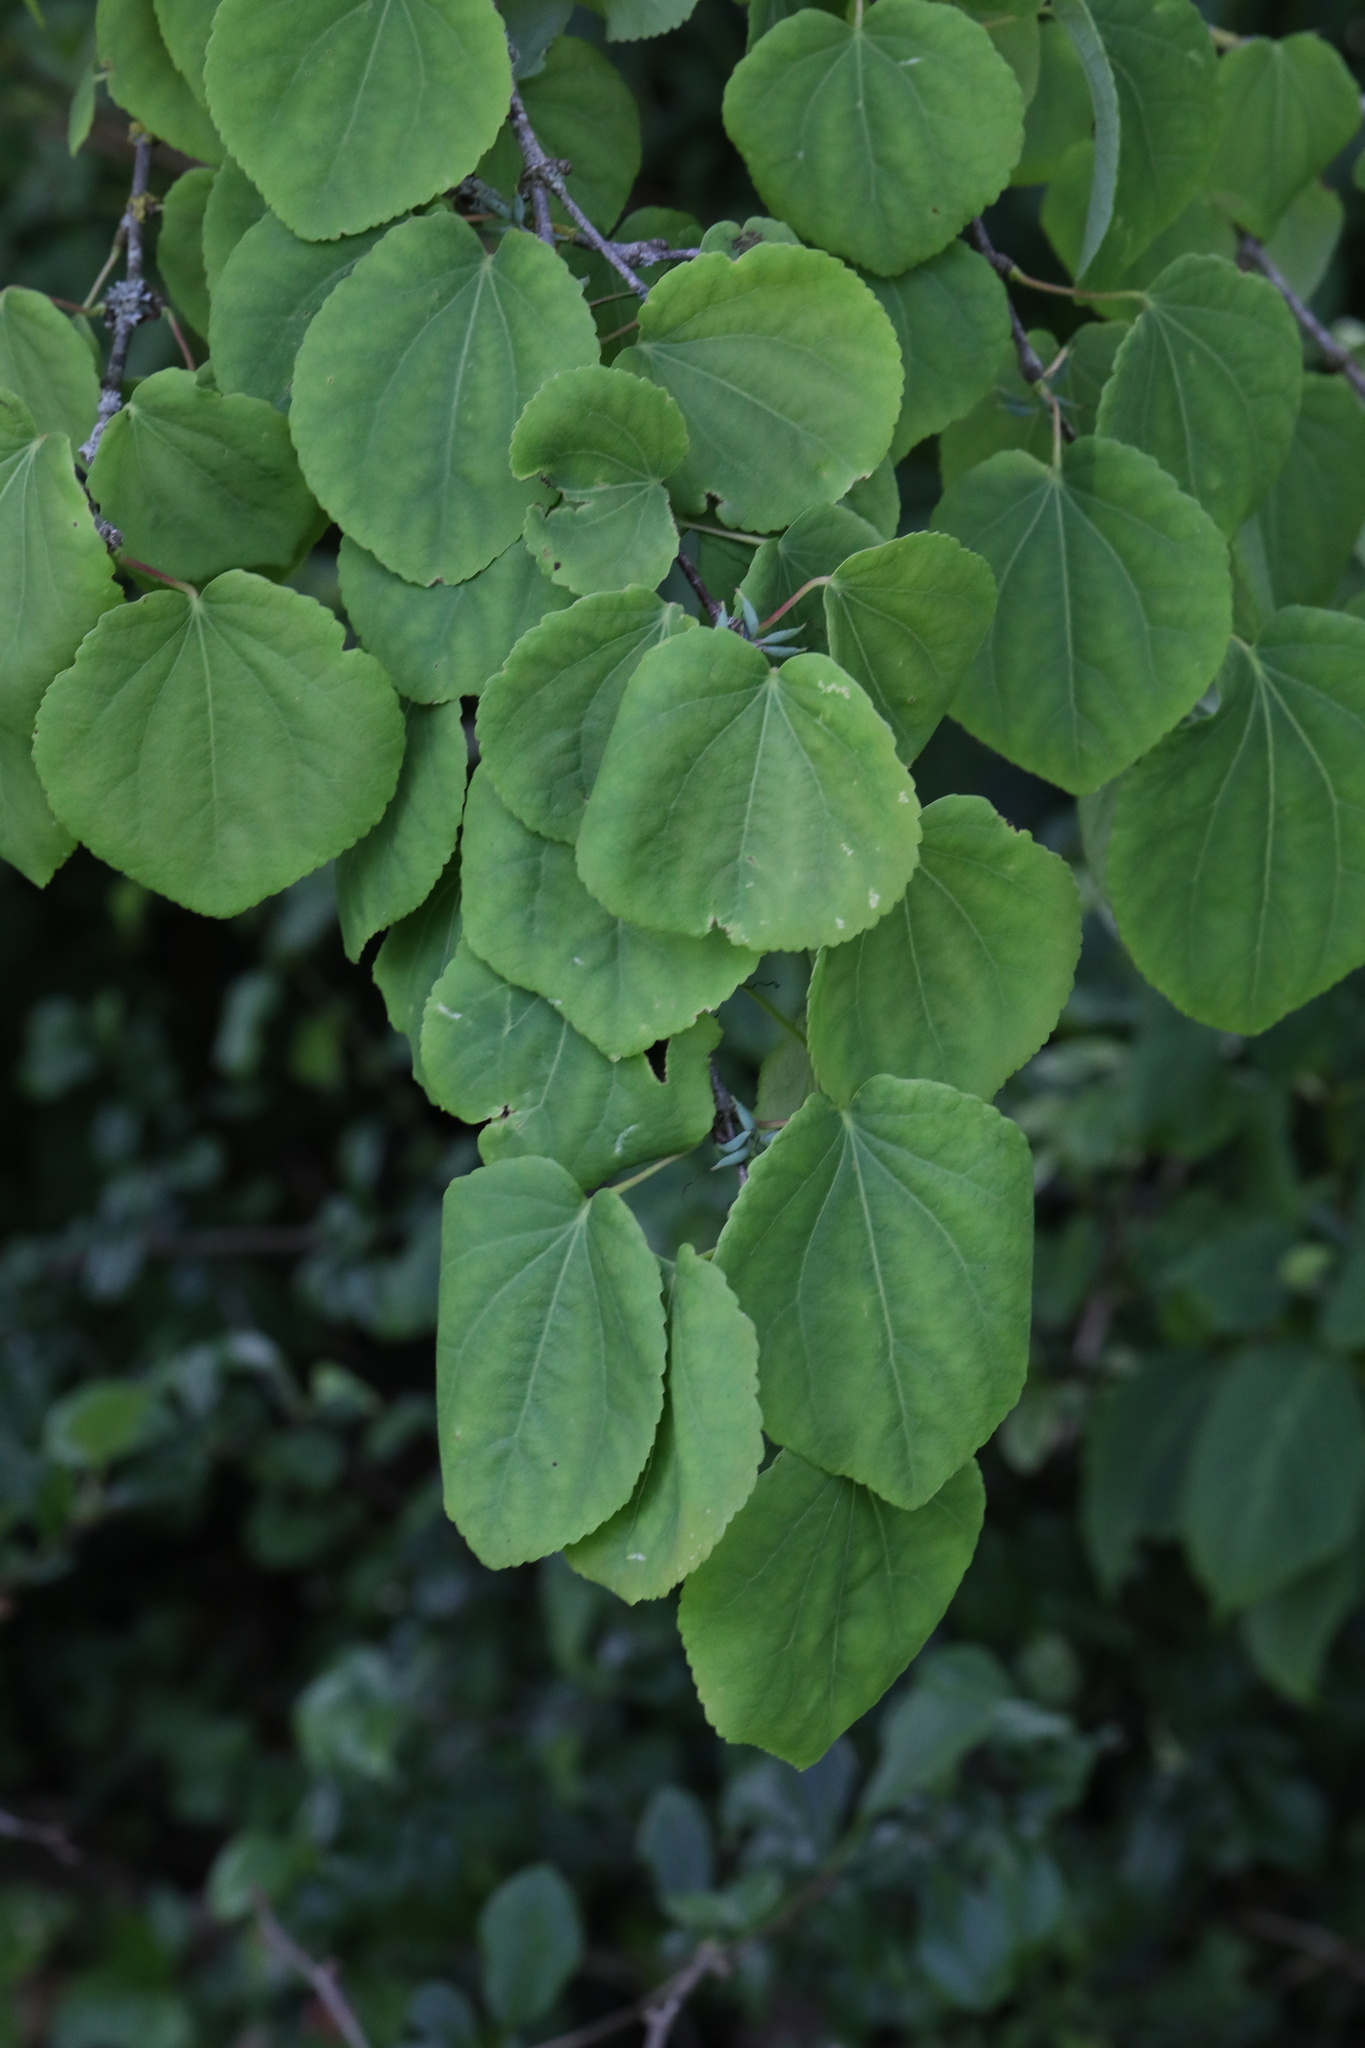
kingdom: Plantae
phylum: Tracheophyta
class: Magnoliopsida
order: Saxifragales
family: Cercidiphyllaceae
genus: Cercidiphyllum
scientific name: Cercidiphyllum japonicum
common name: Katsura tree
